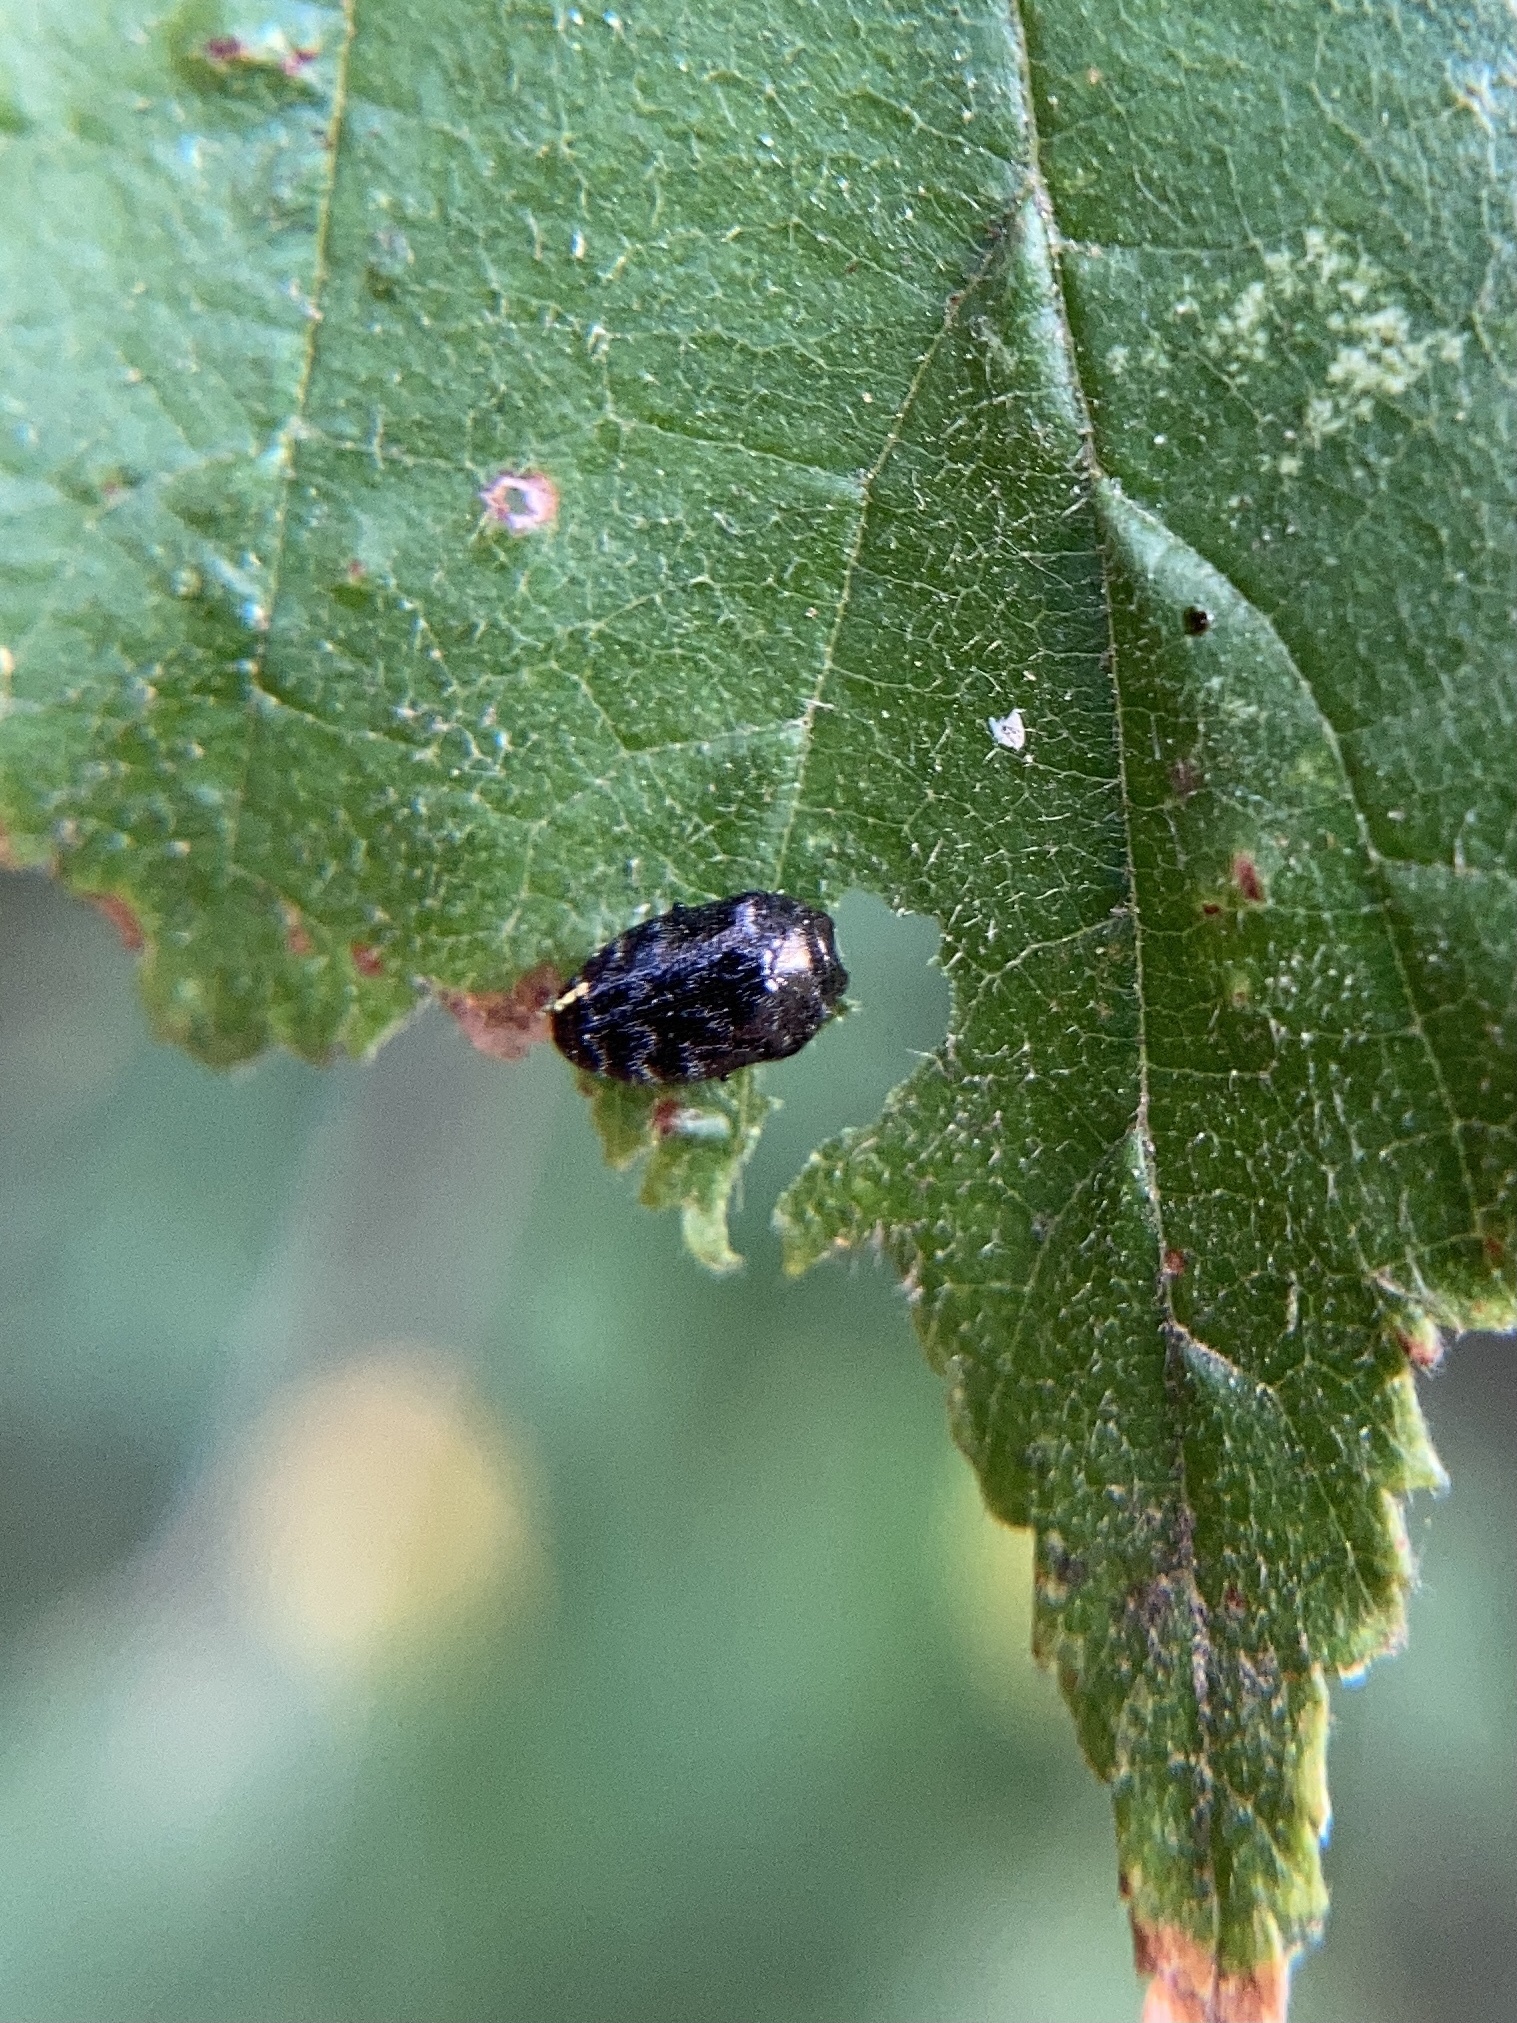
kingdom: Animalia
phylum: Arthropoda
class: Insecta
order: Coleoptera
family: Buprestidae
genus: Trachys
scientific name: Trachys minutus
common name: Metallic wood-boring beetle
